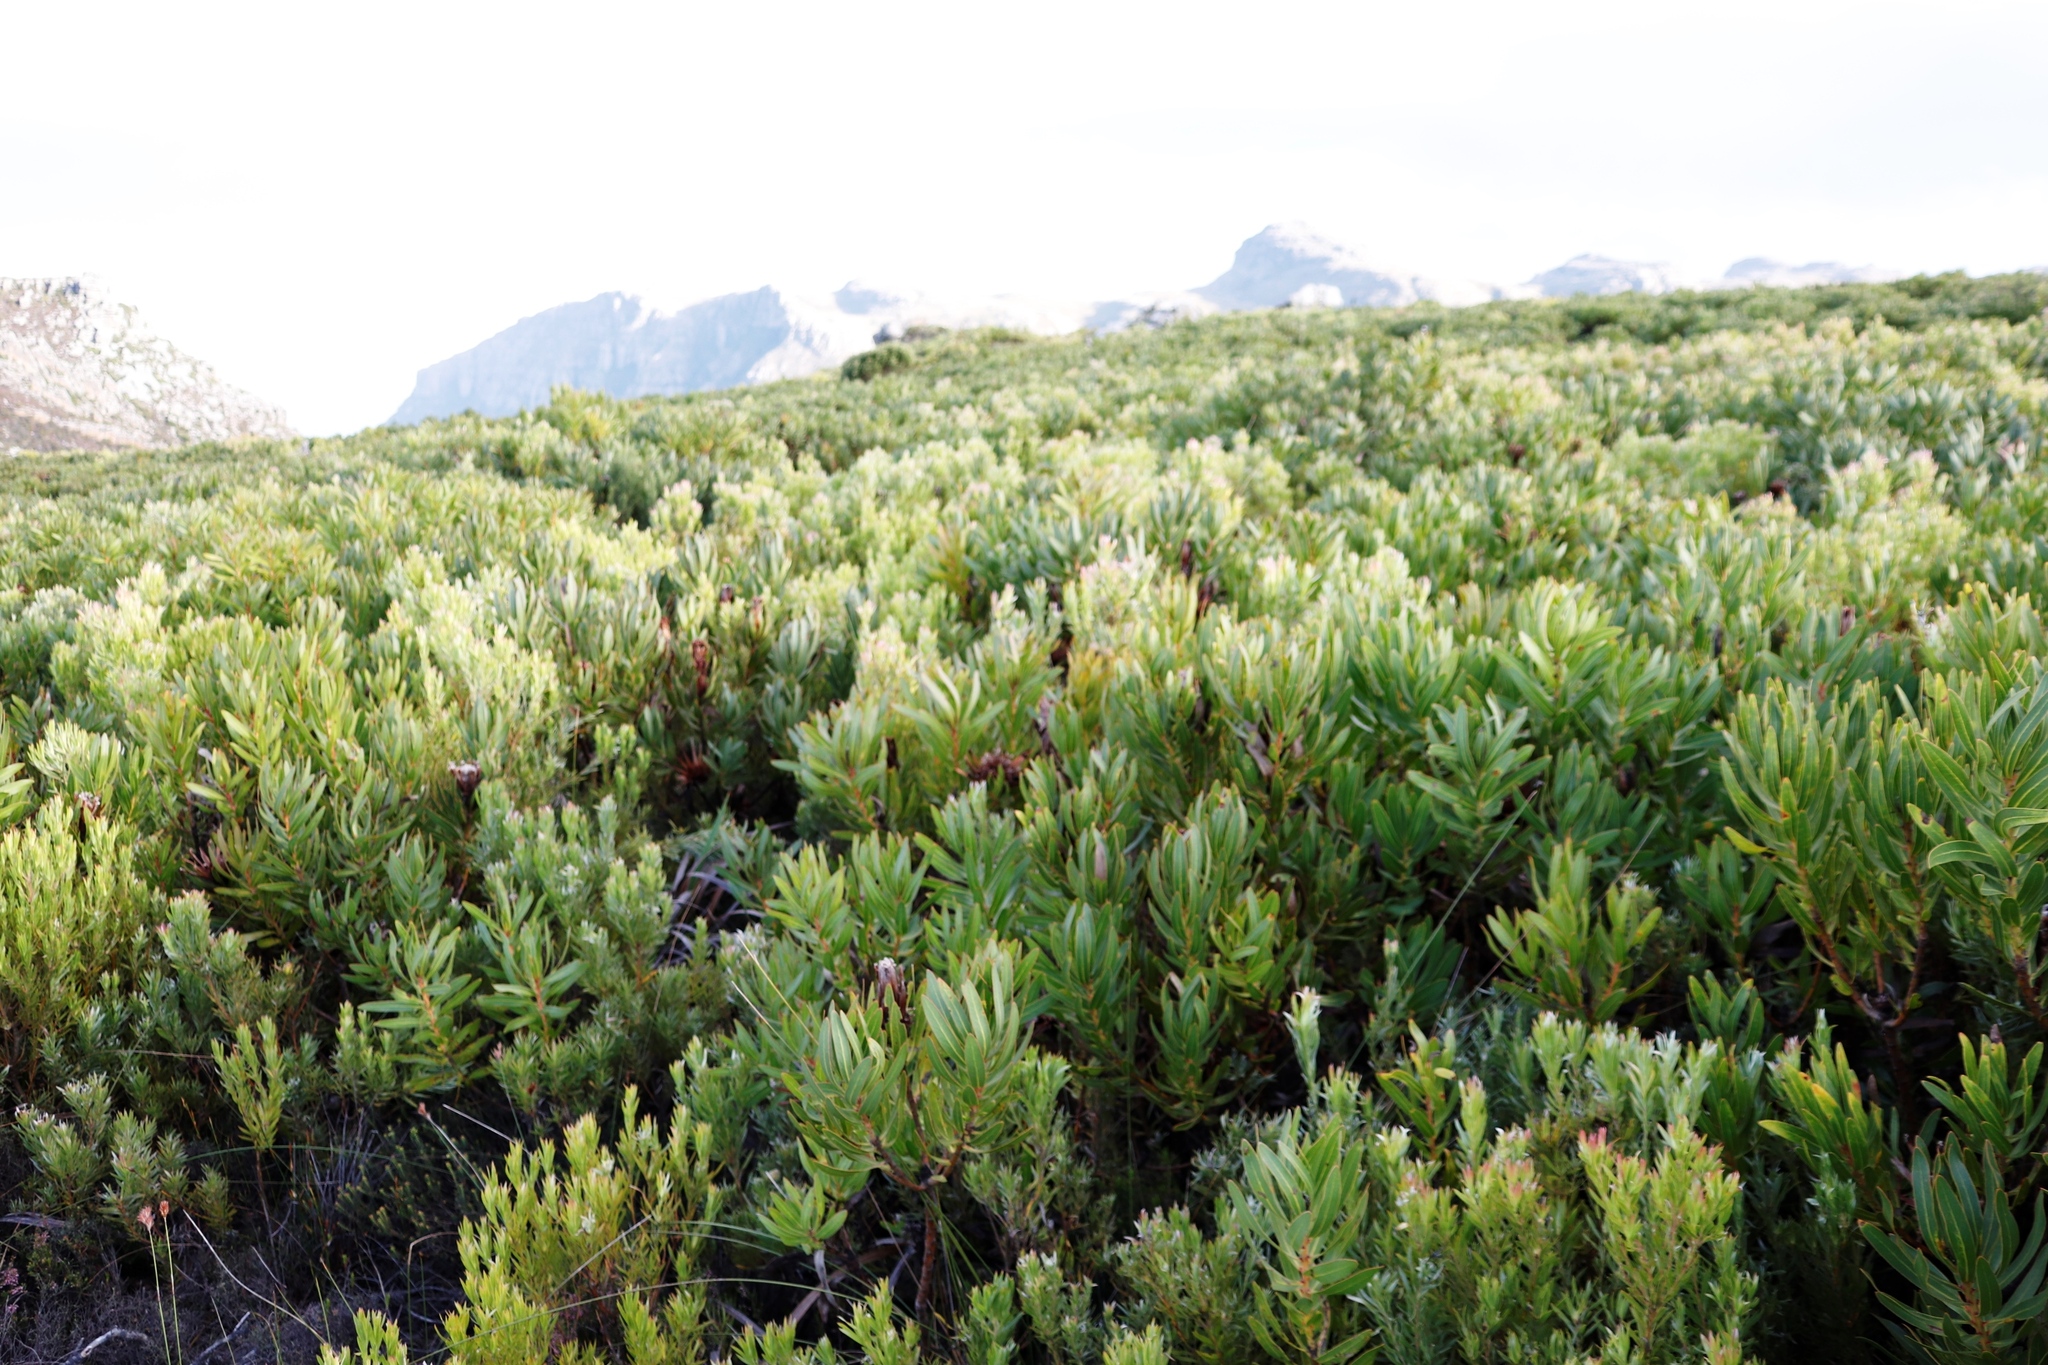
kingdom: Plantae
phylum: Tracheophyta
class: Magnoliopsida
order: Proteales
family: Proteaceae
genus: Protea
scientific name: Protea lepidocarpodendron
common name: Black-bearded protea
